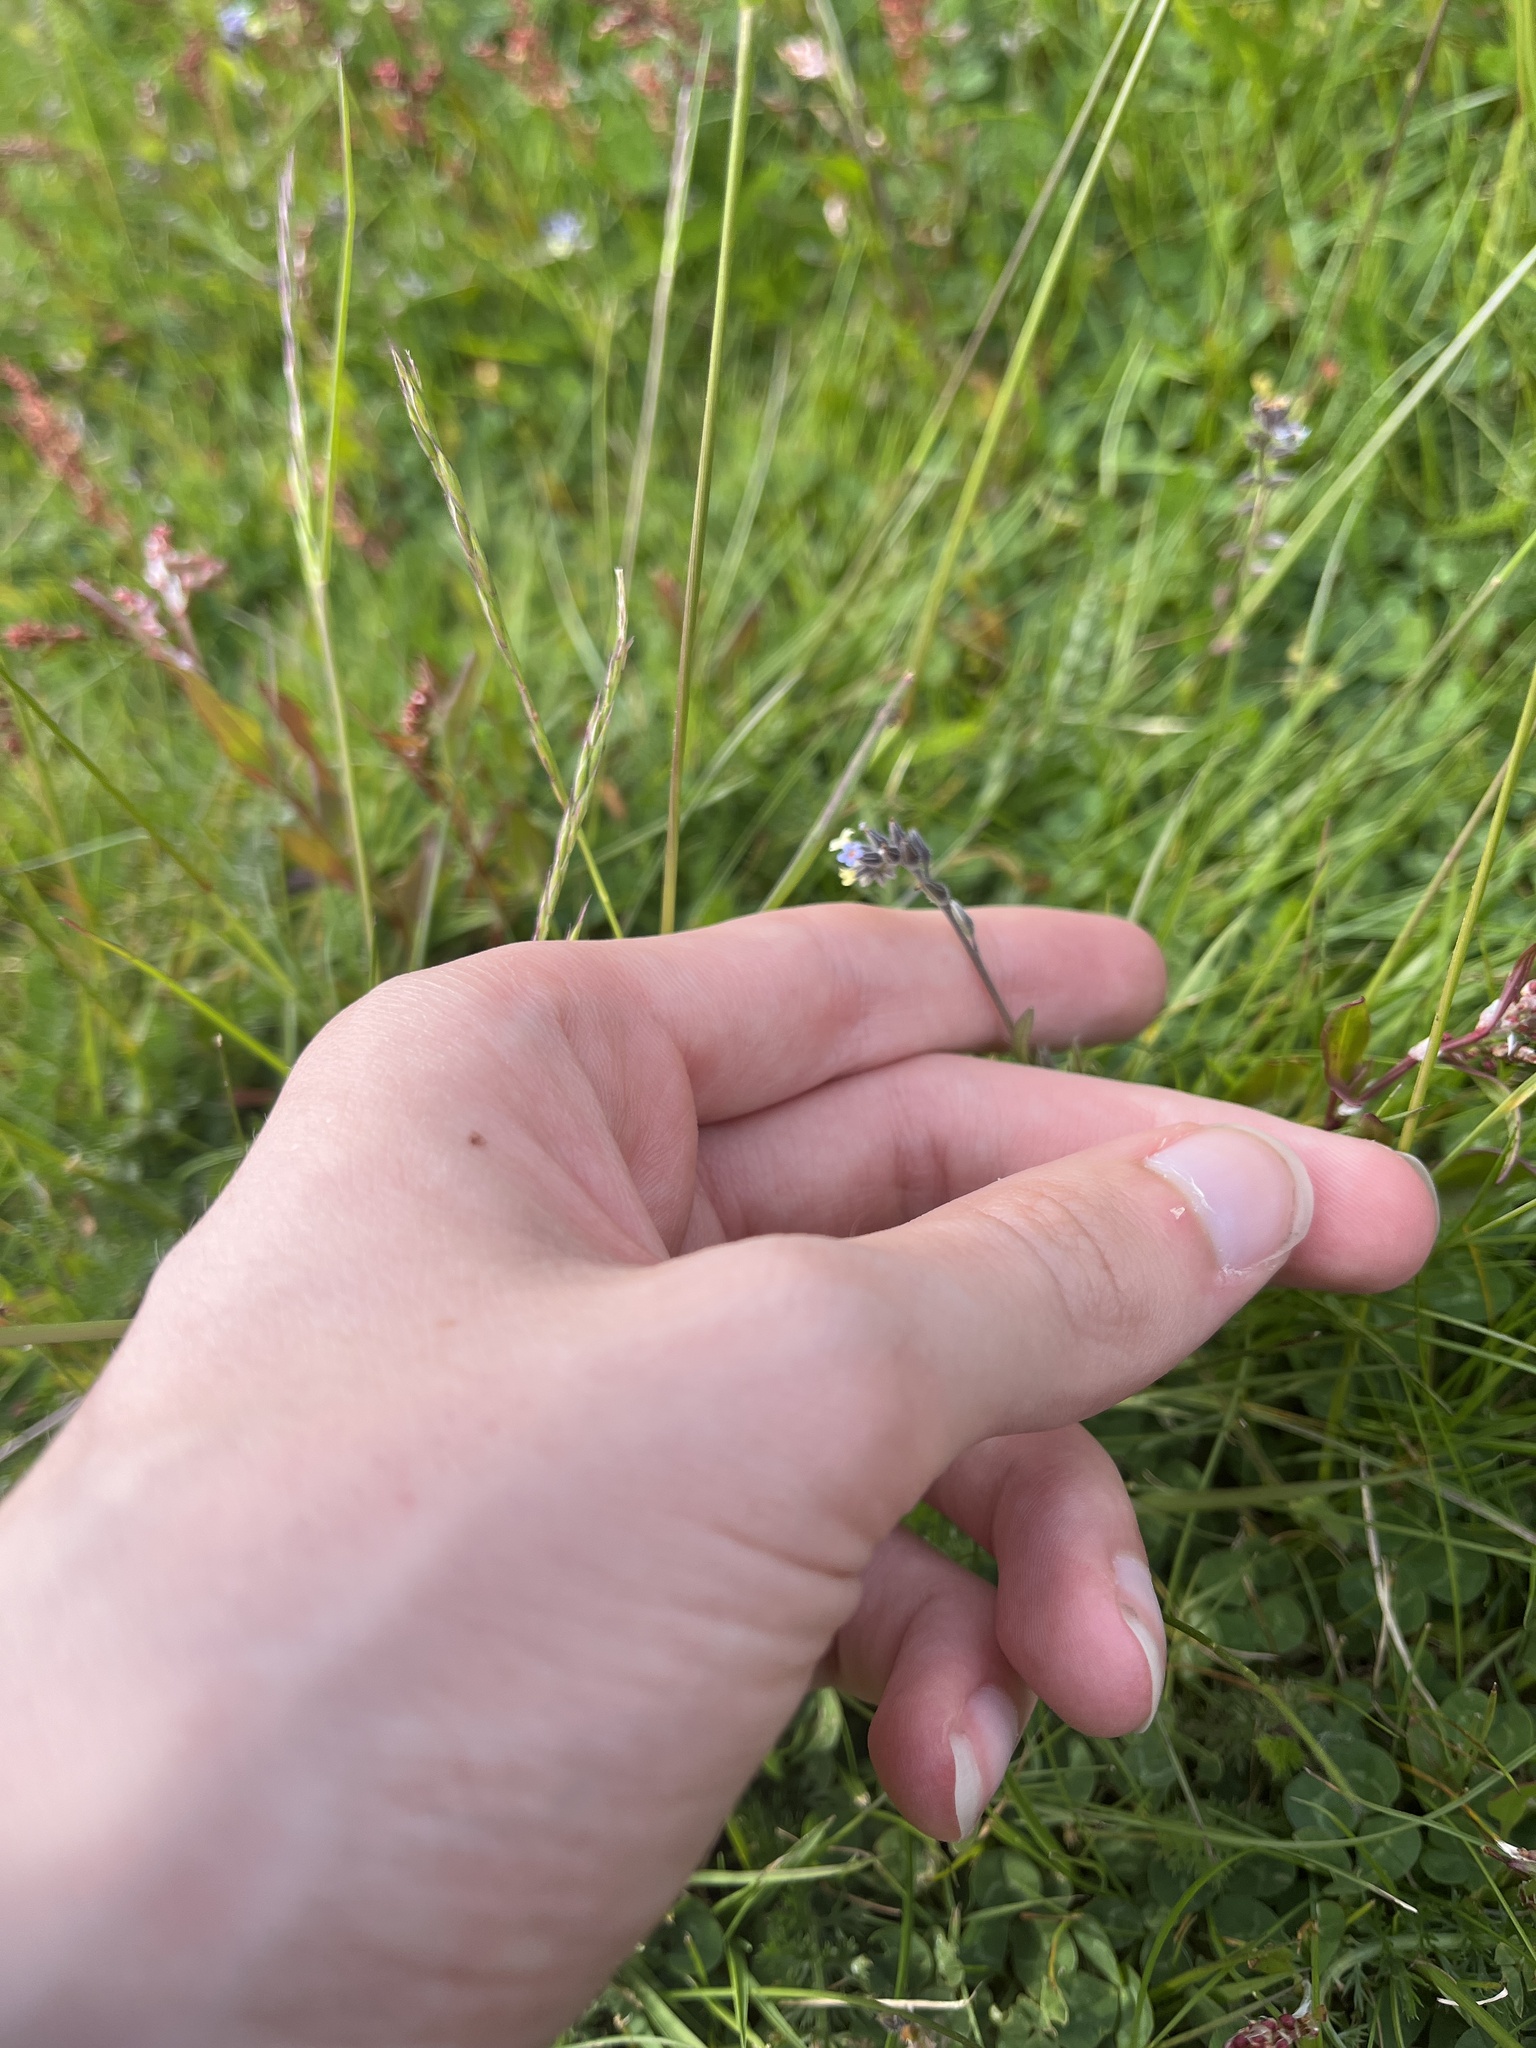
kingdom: Plantae
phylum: Tracheophyta
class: Magnoliopsida
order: Boraginales
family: Boraginaceae
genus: Myosotis
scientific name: Myosotis discolor
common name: Changing forget-me-not
